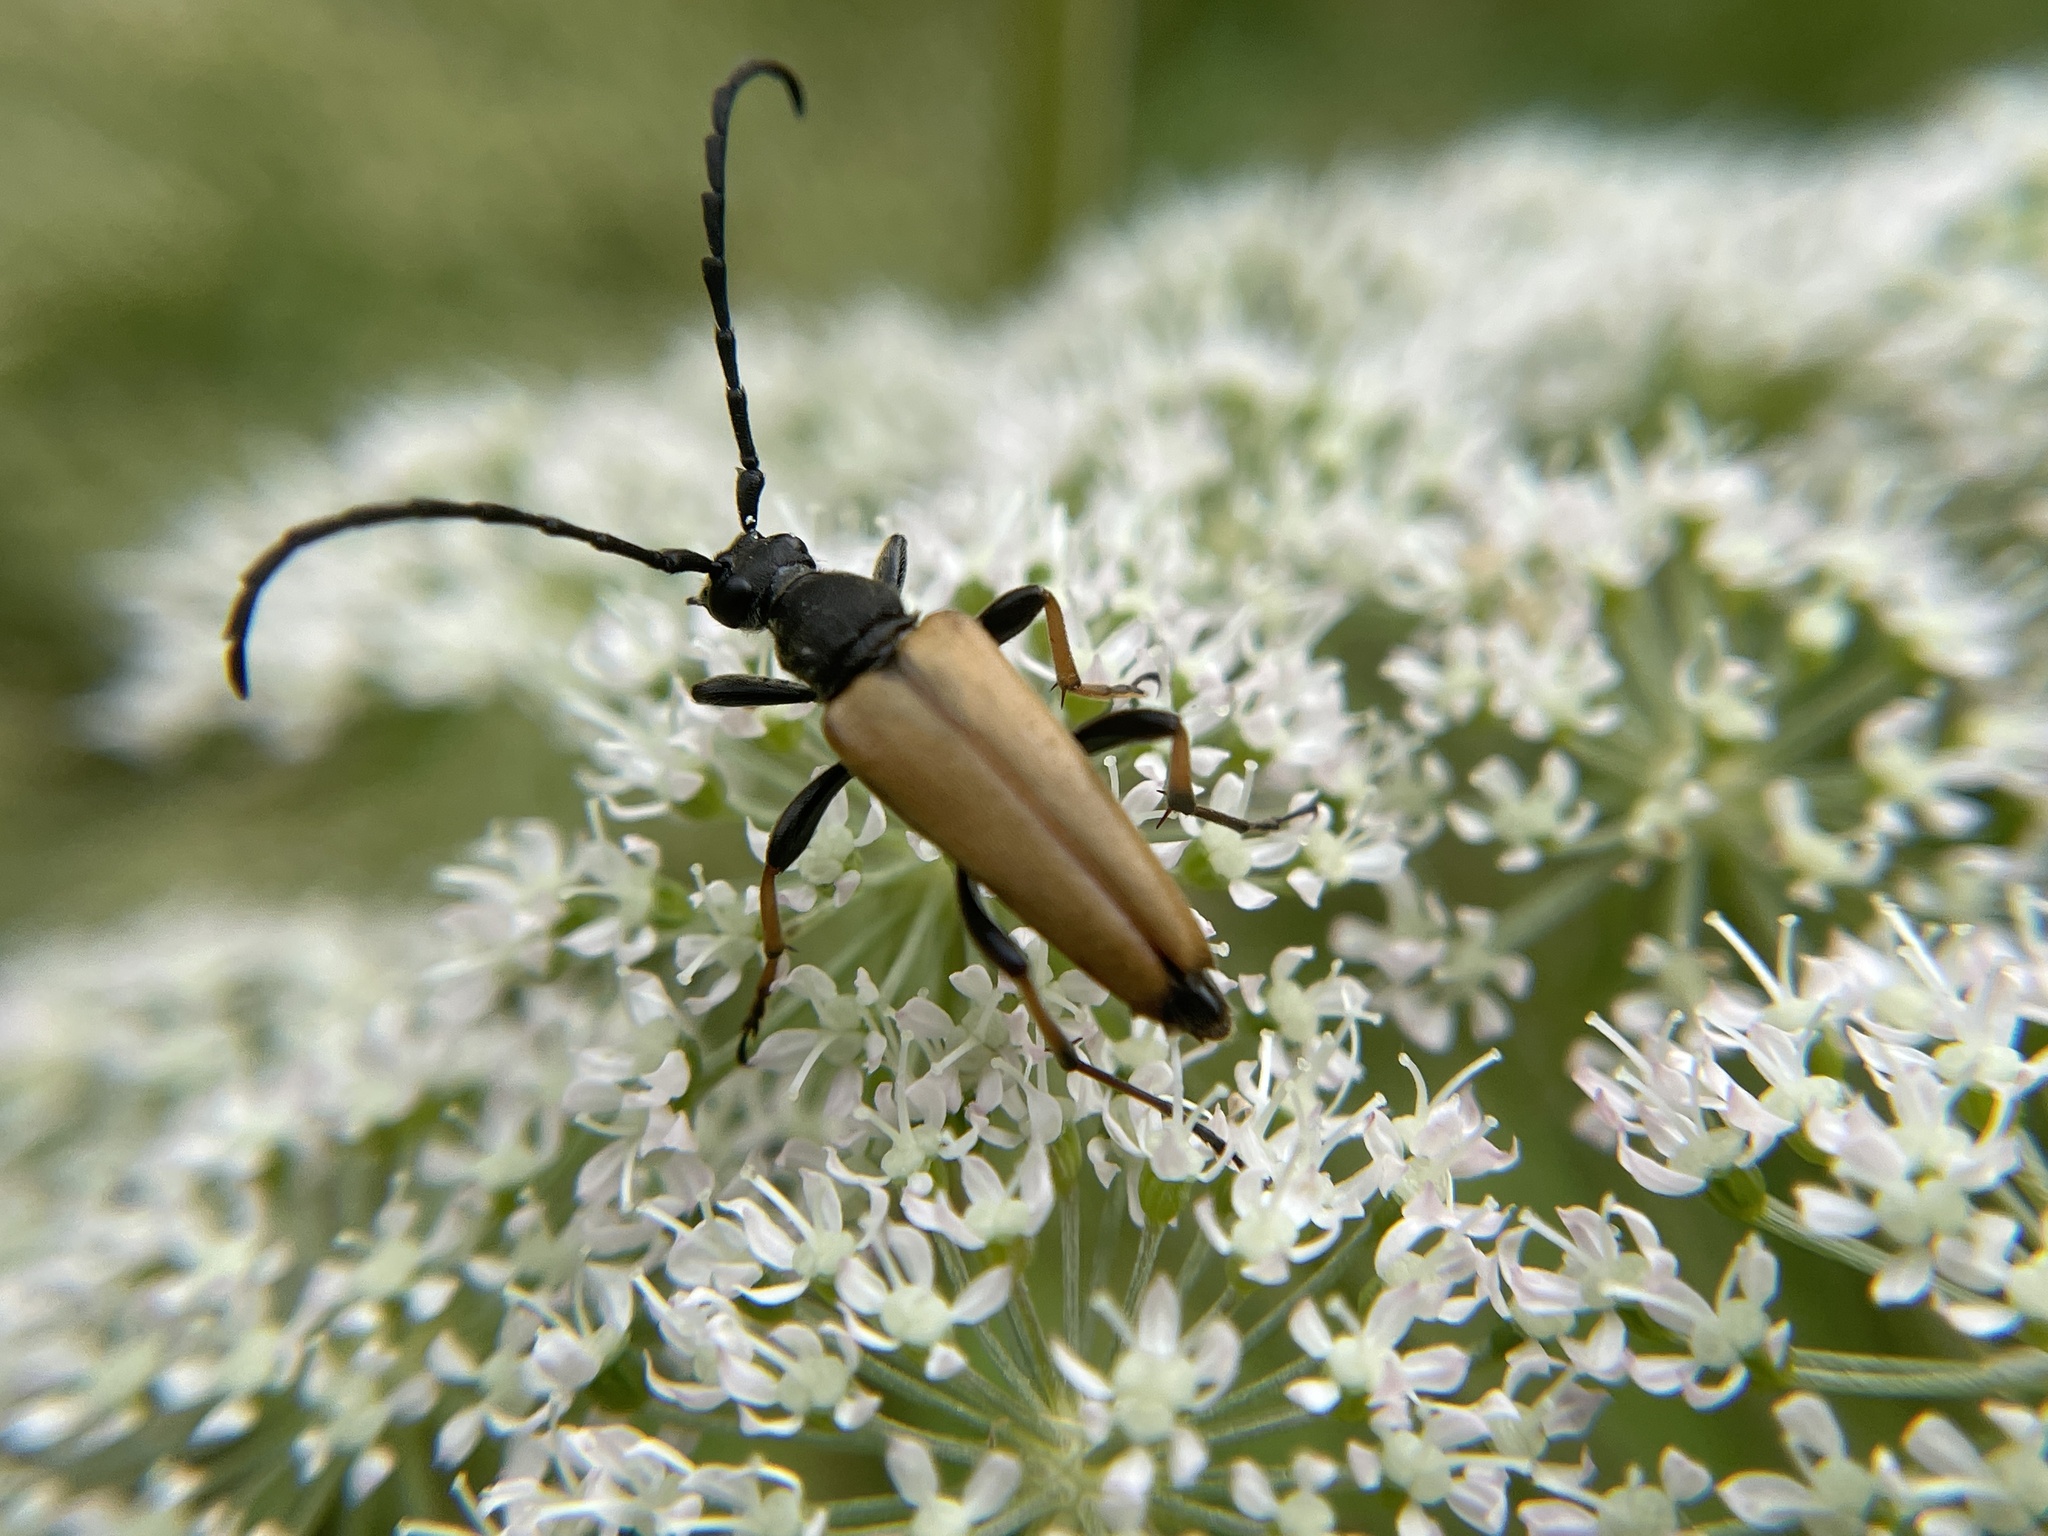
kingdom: Animalia
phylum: Arthropoda
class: Insecta
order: Coleoptera
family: Cerambycidae
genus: Stictoleptura
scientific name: Stictoleptura rubra
